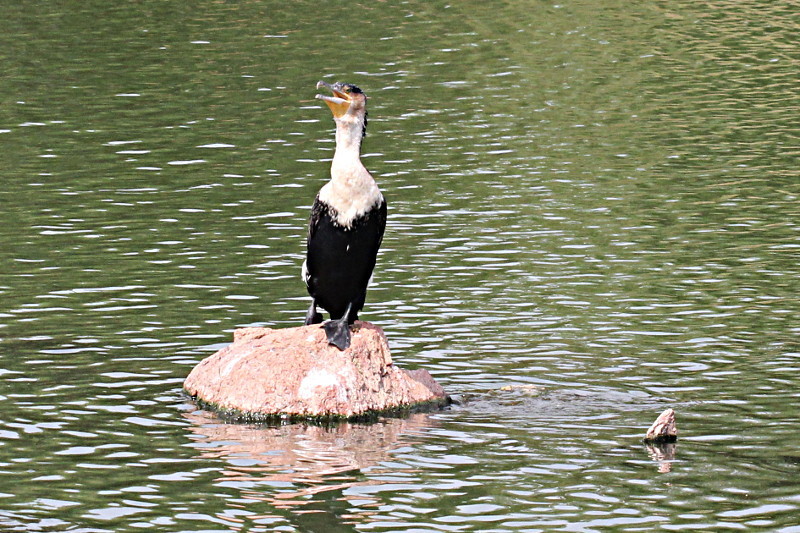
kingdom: Animalia
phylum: Chordata
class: Aves
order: Suliformes
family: Phalacrocoracidae
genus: Phalacrocorax
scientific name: Phalacrocorax carbo
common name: Great cormorant
